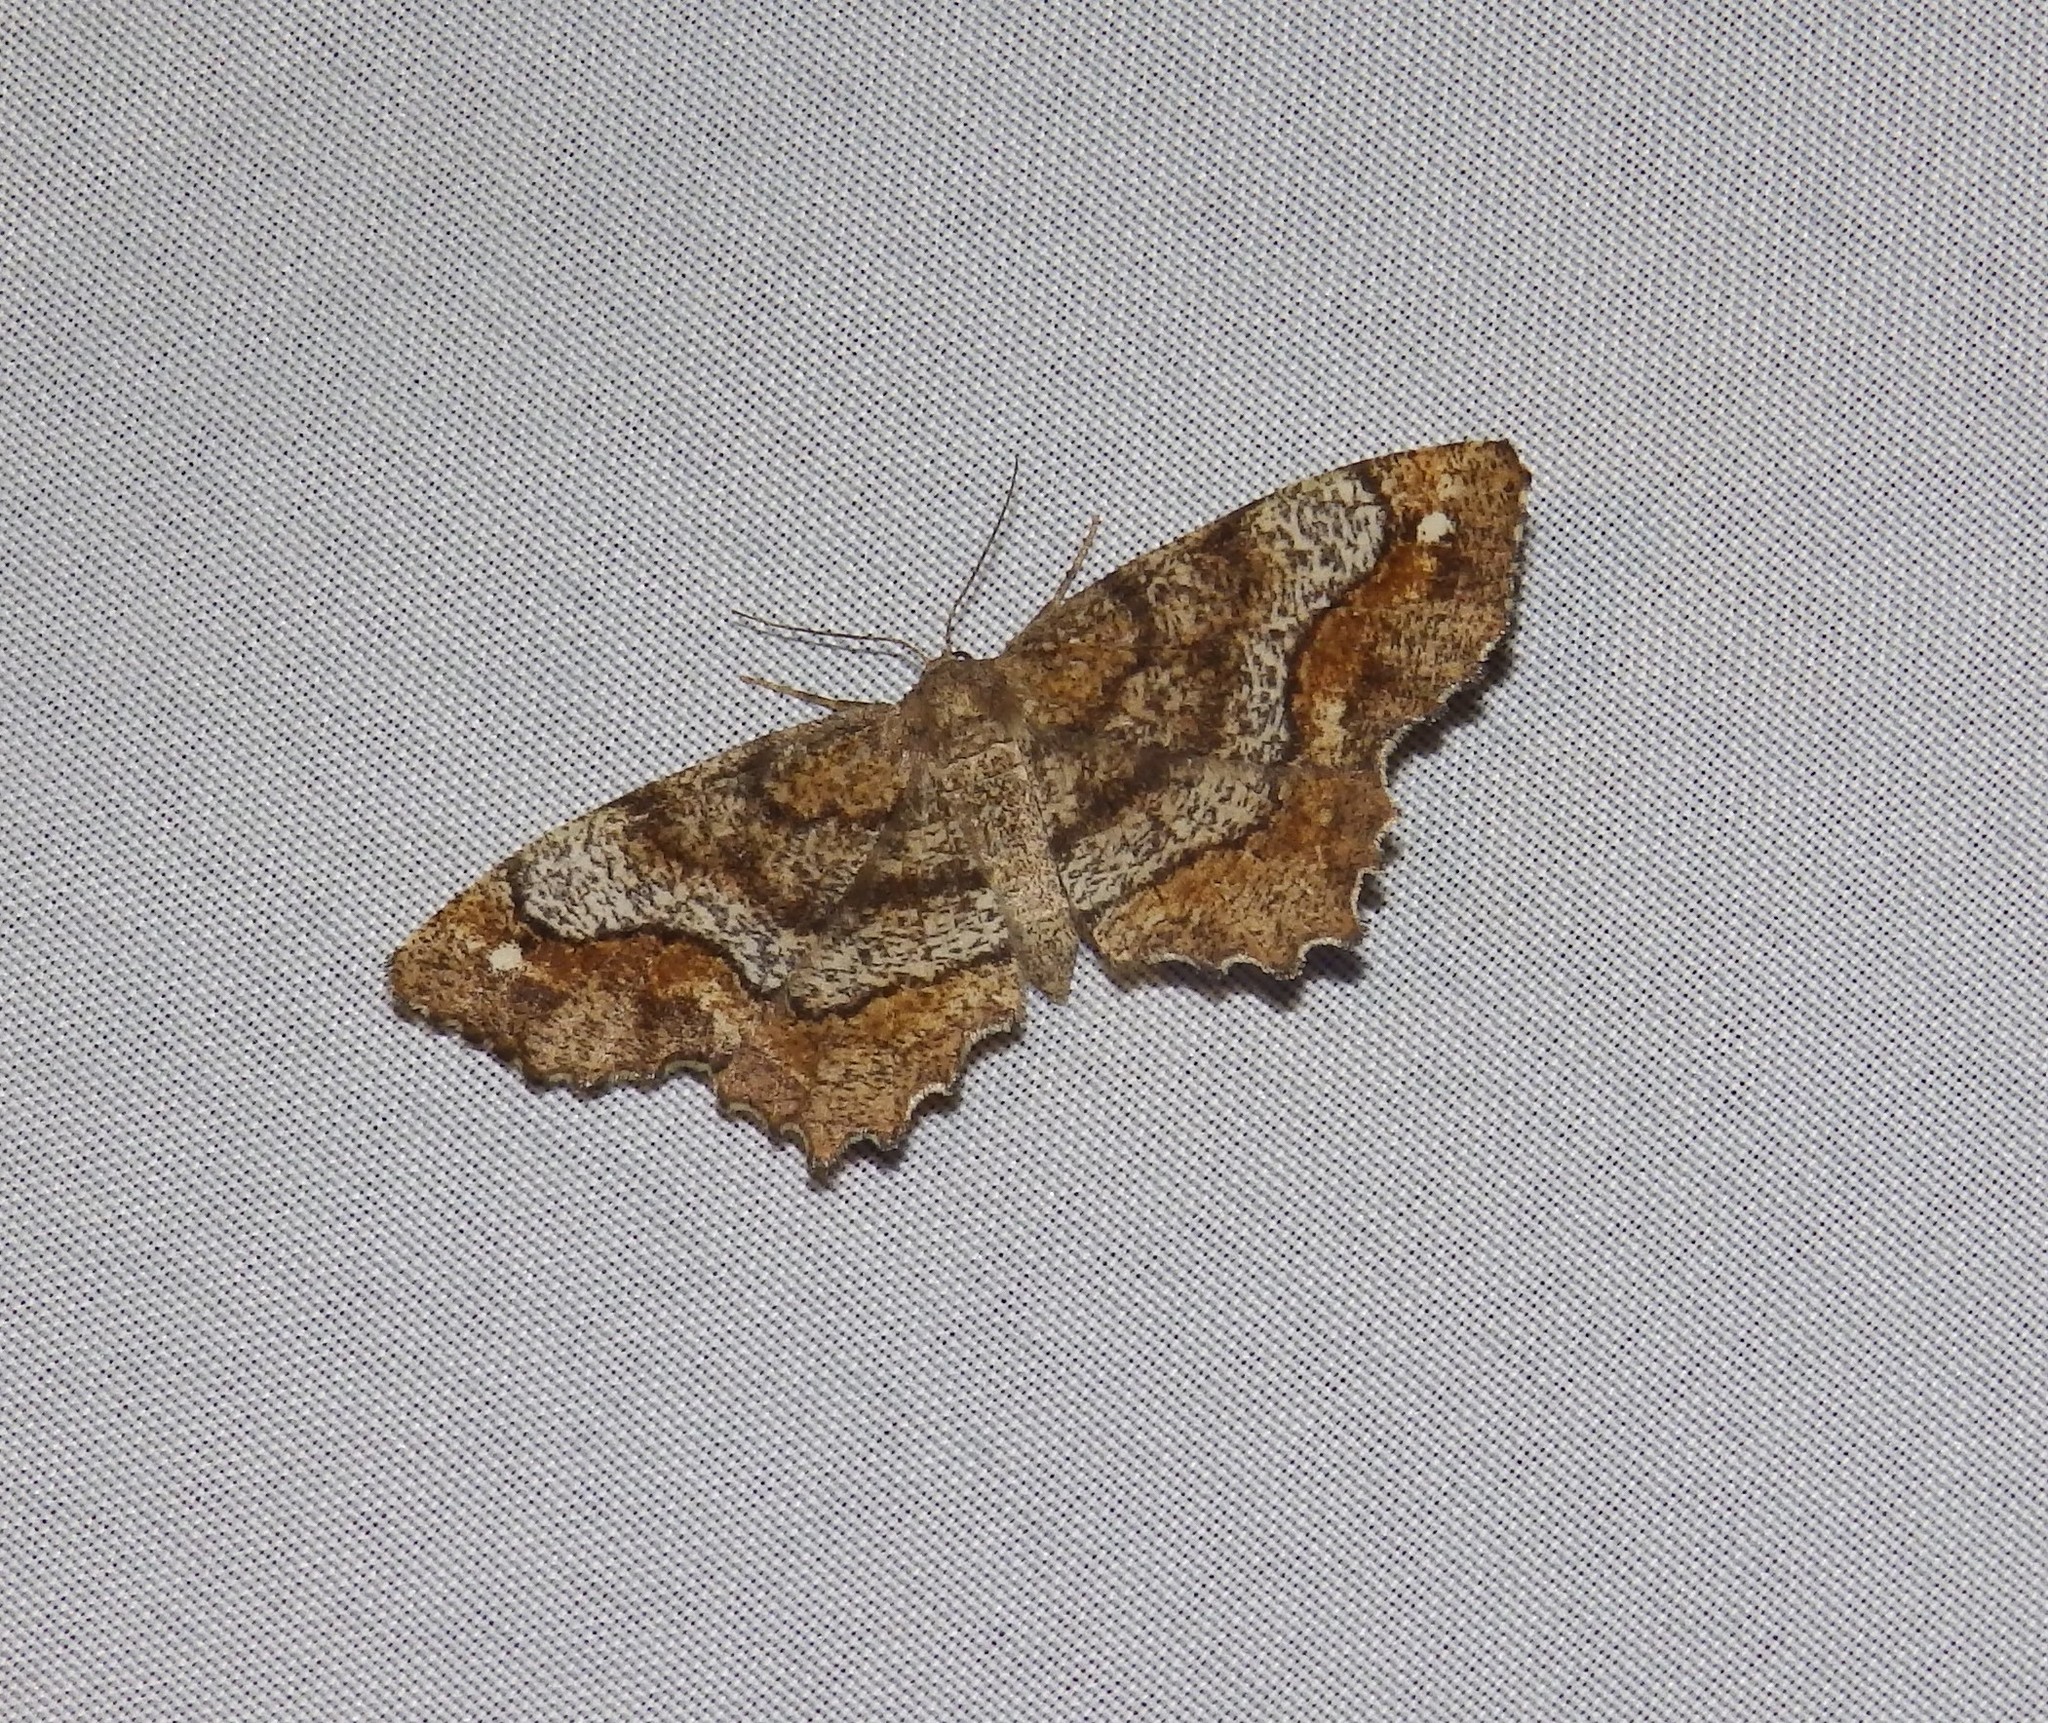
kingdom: Animalia
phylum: Arthropoda
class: Insecta
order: Lepidoptera
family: Geometridae
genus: Hypagyrtis
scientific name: Hypagyrtis unipunctata
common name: One-spotted variant
